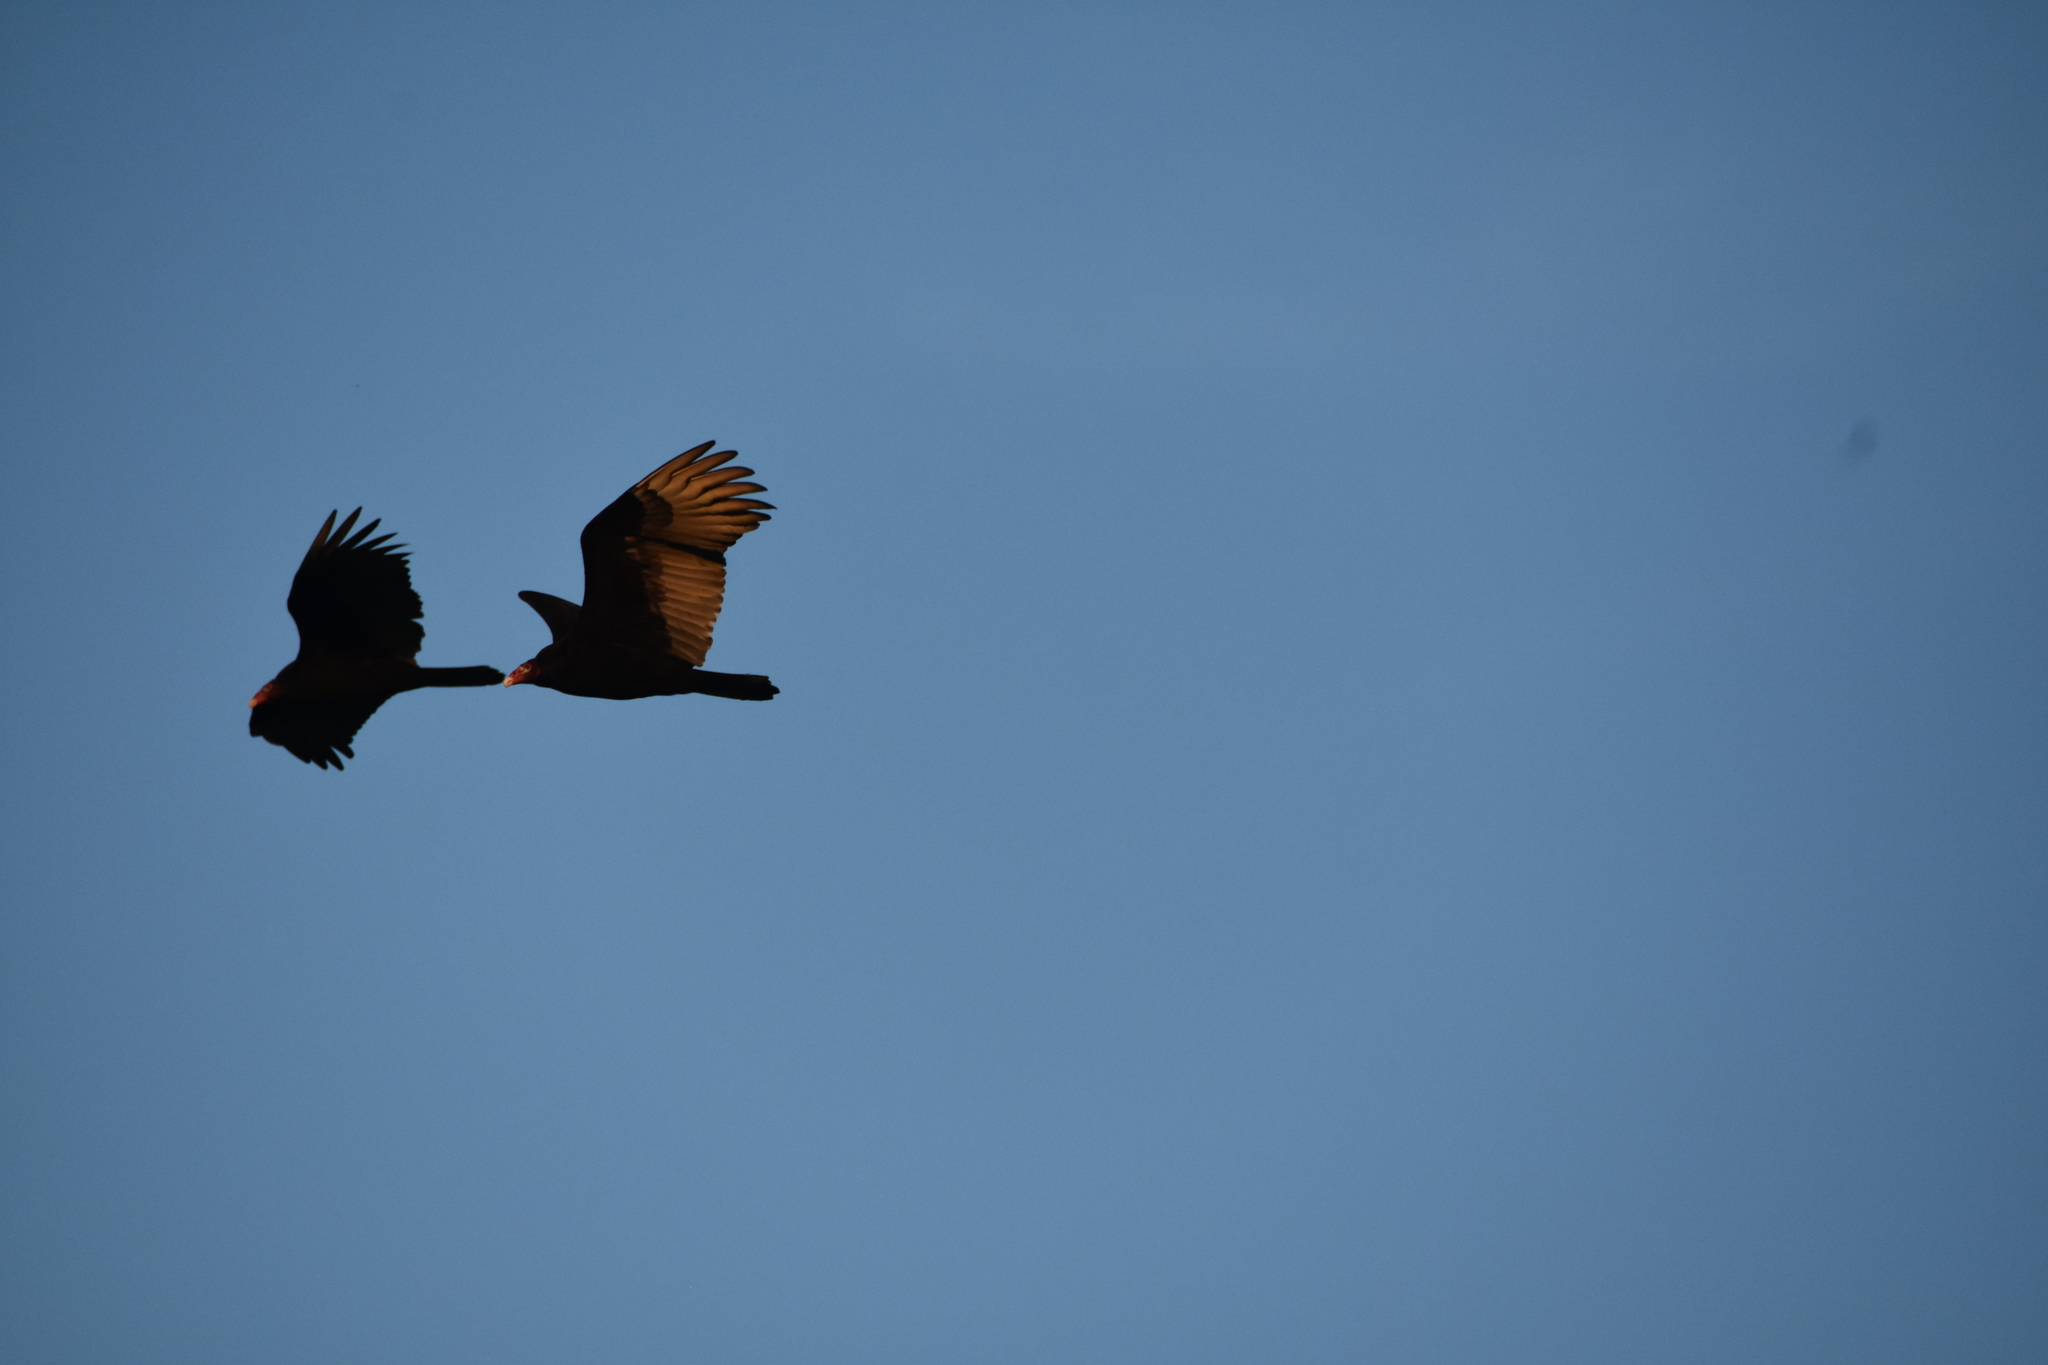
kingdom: Animalia
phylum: Chordata
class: Aves
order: Accipitriformes
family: Cathartidae
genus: Cathartes
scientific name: Cathartes aura
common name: Turkey vulture
